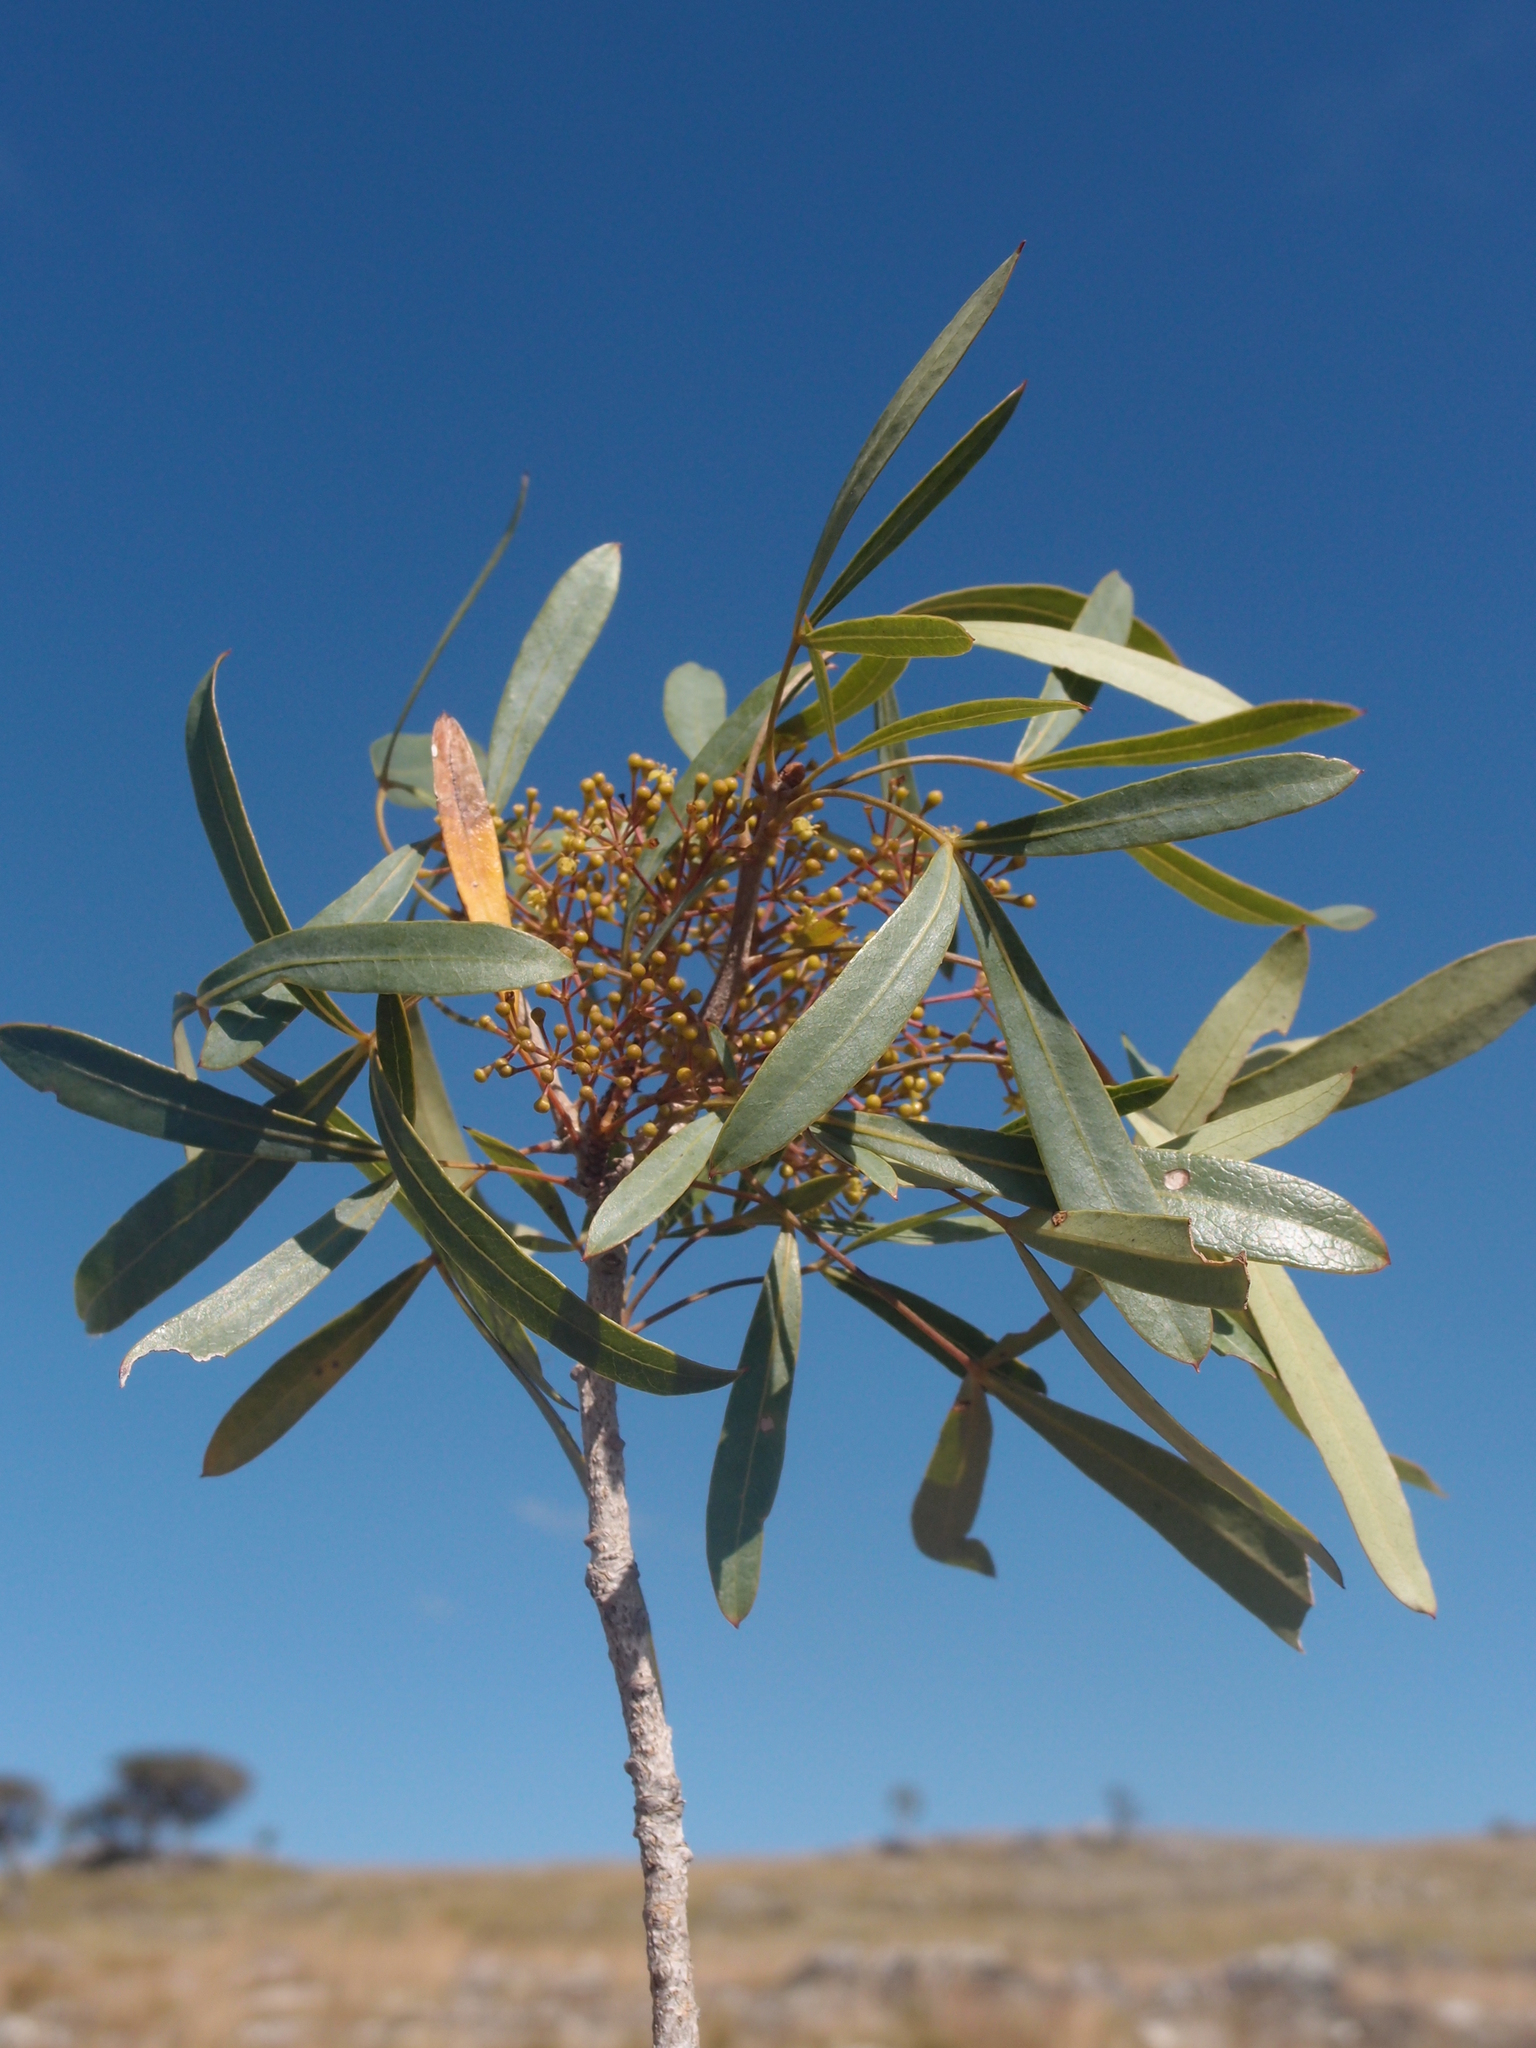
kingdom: Plantae
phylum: Tracheophyta
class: Magnoliopsida
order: Apiales
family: Araliaceae
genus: Neocussonia
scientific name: Neocussonia bojeri
